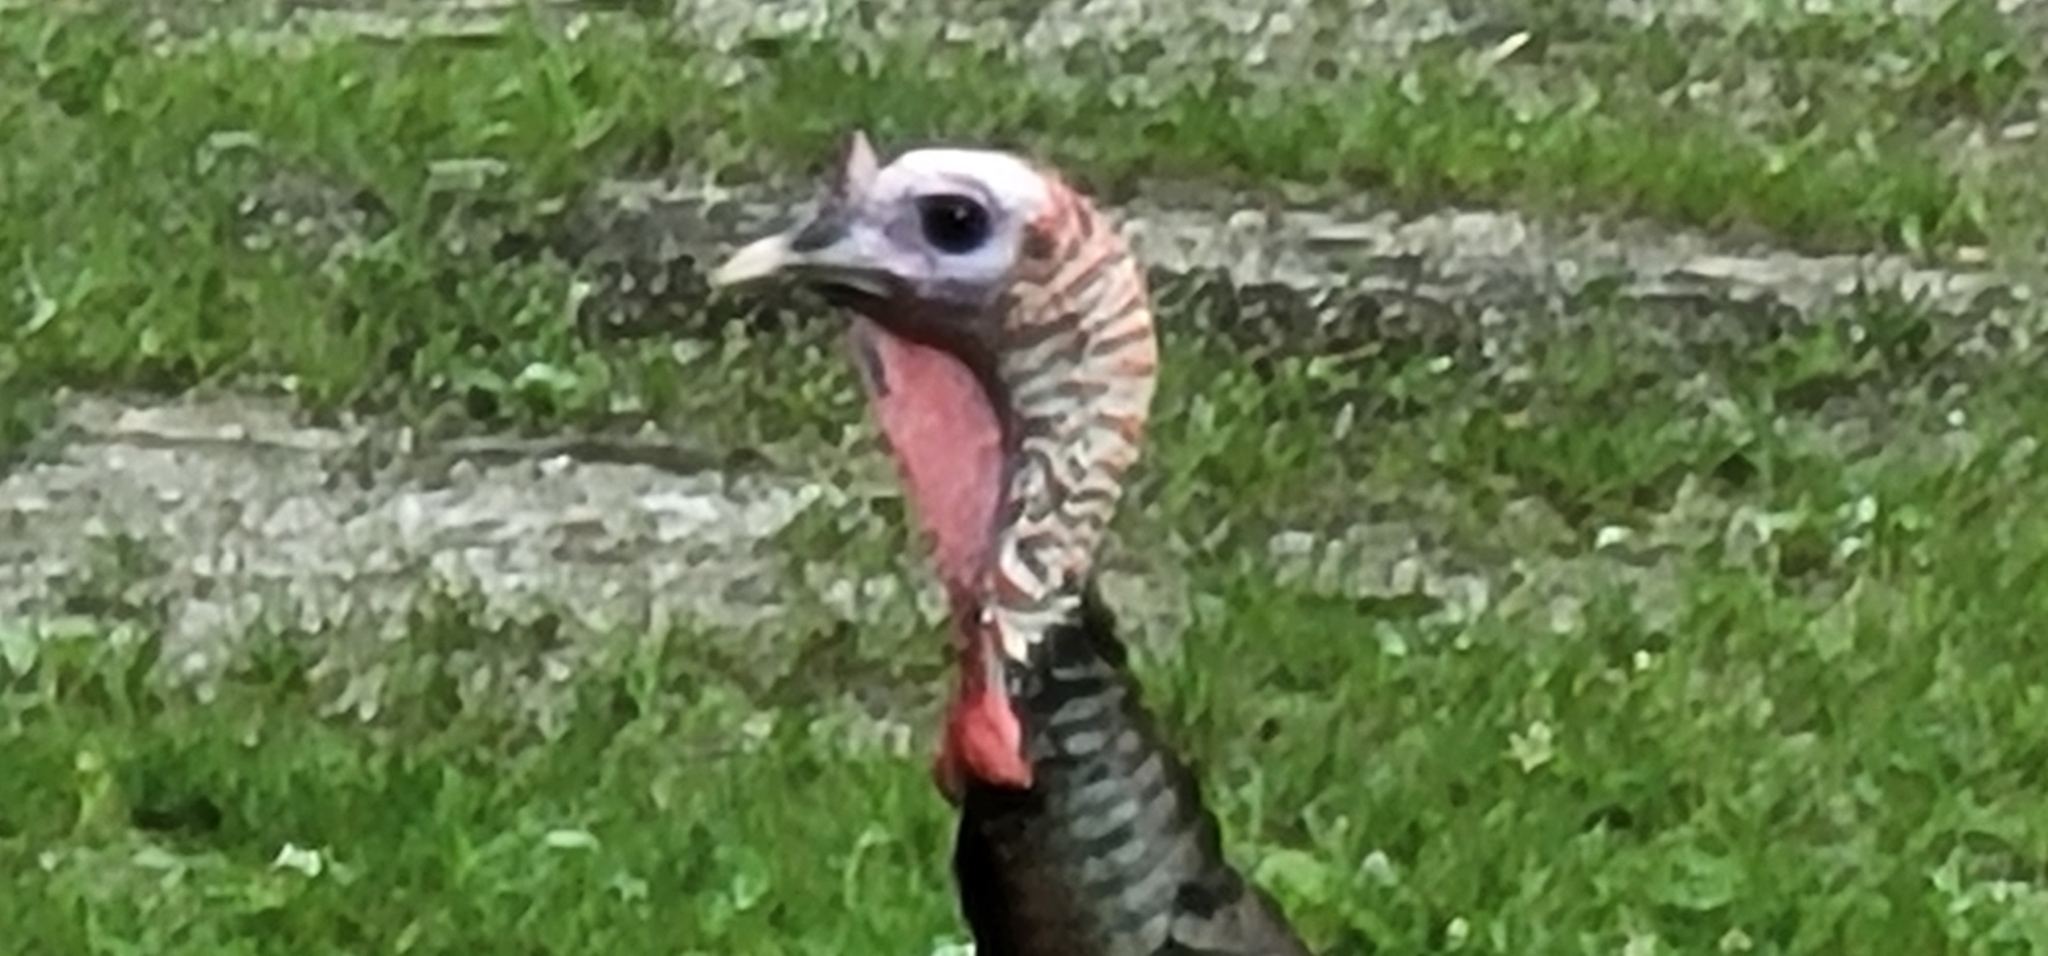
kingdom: Animalia
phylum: Chordata
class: Aves
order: Galliformes
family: Phasianidae
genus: Meleagris
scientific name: Meleagris gallopavo
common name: Wild turkey
